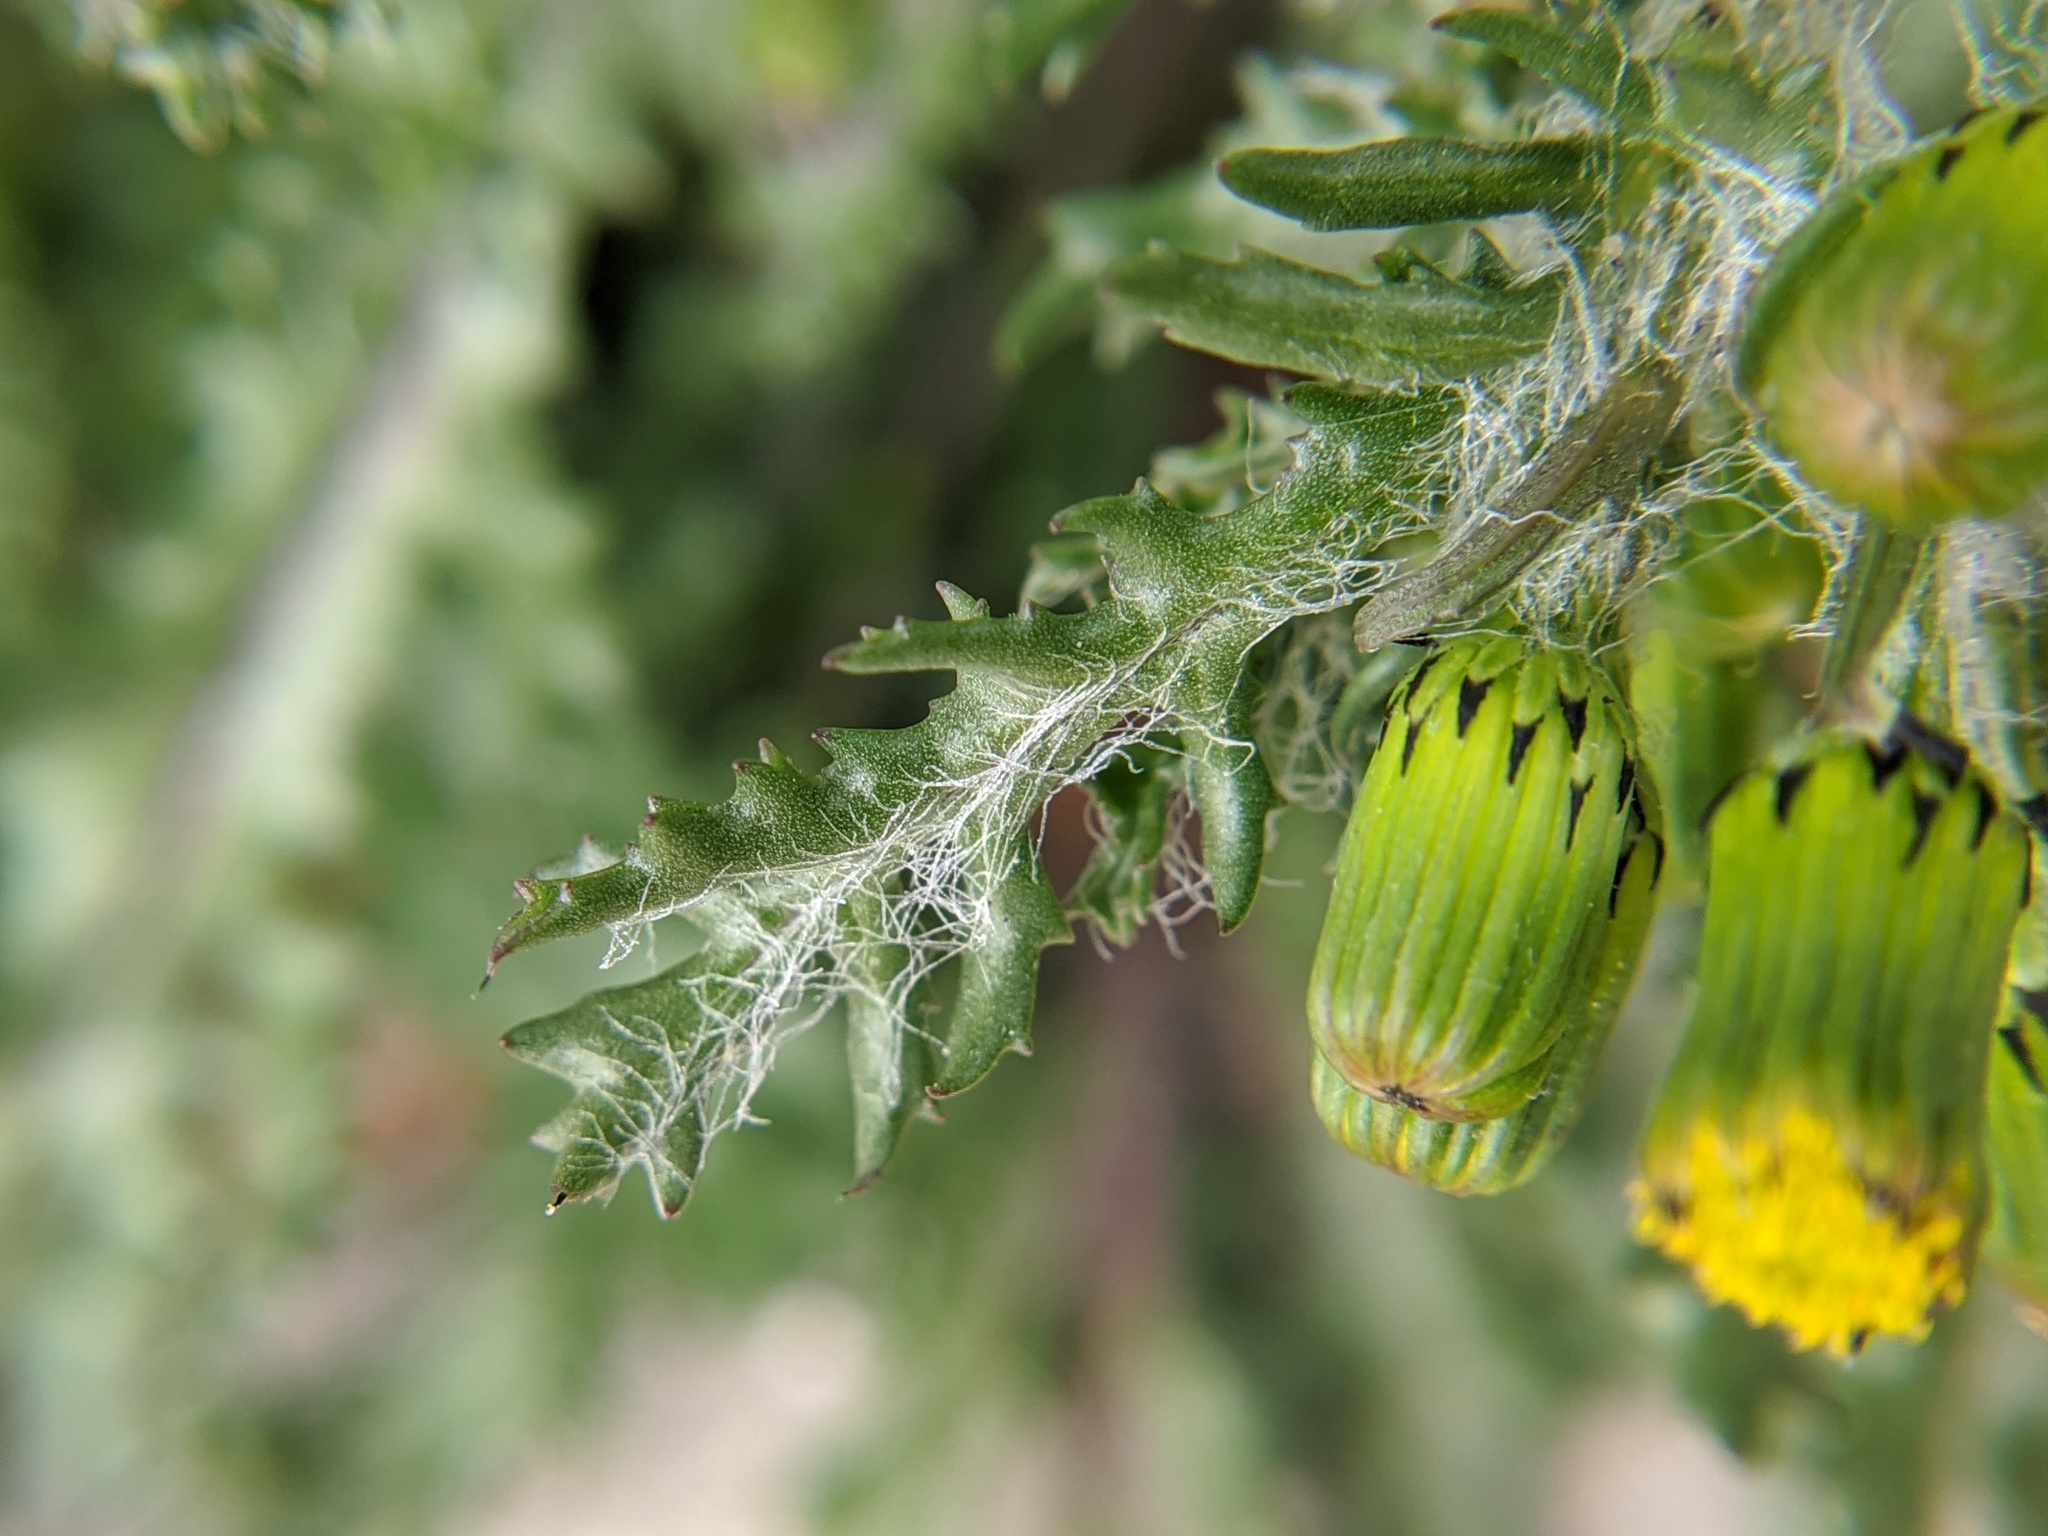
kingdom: Plantae
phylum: Tracheophyta
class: Magnoliopsida
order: Asterales
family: Asteraceae
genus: Senecio
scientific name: Senecio vulgaris
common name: Old-man-in-the-spring
